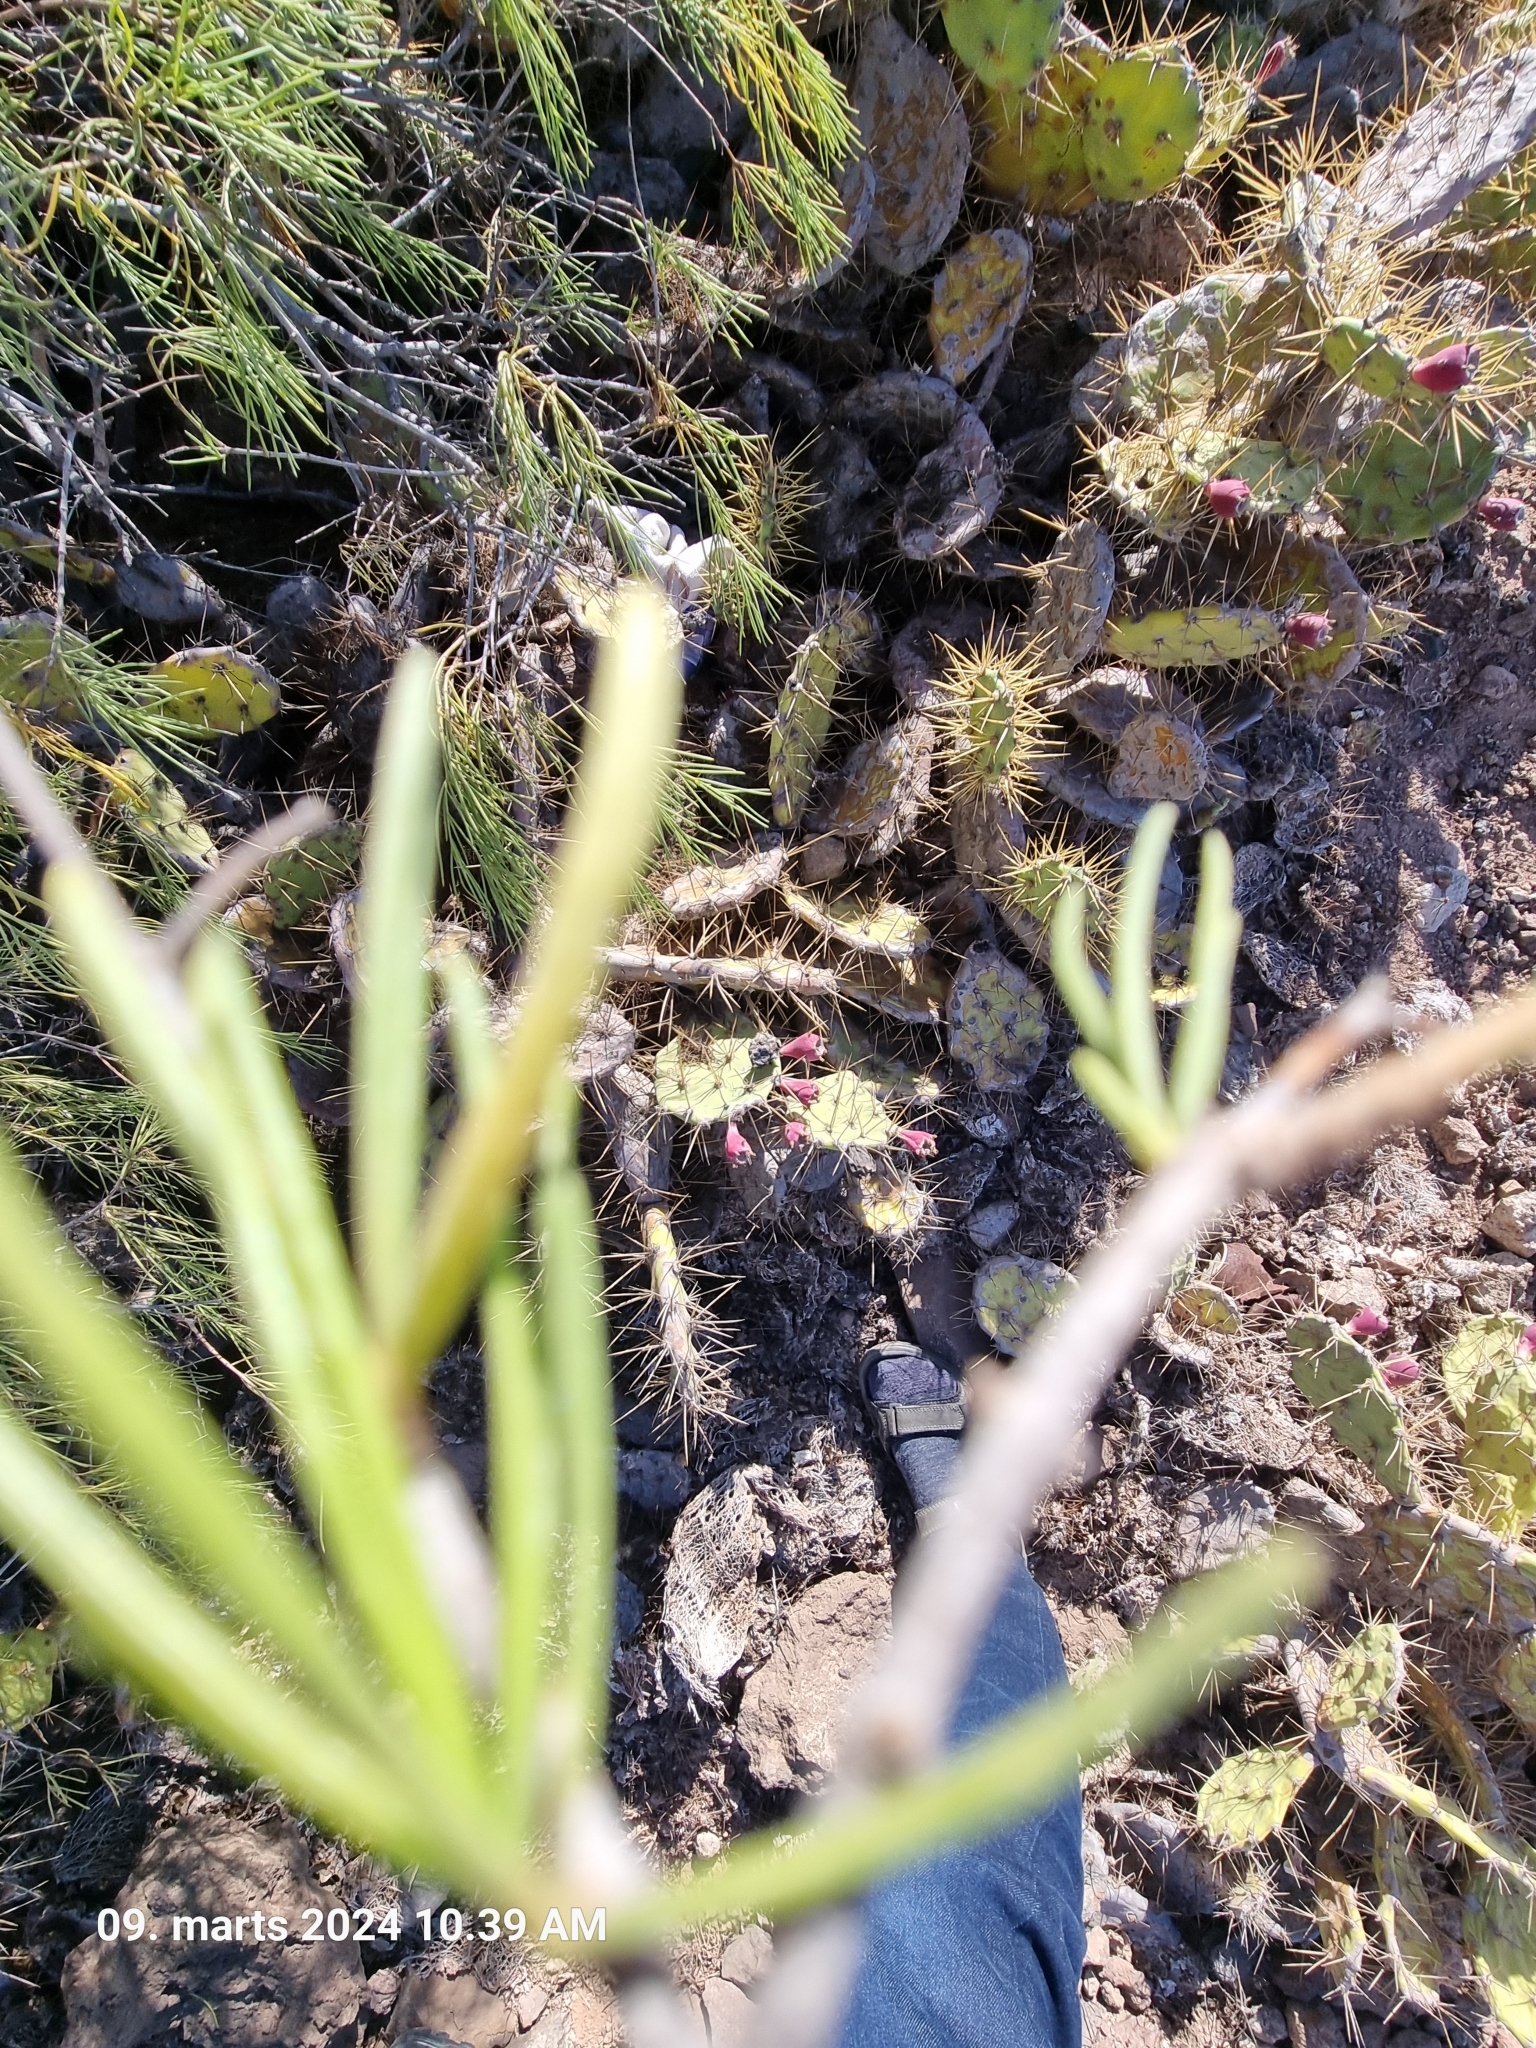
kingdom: Plantae
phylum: Tracheophyta
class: Magnoliopsida
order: Gentianales
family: Rubiaceae
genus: Plocama
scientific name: Plocama pendula
